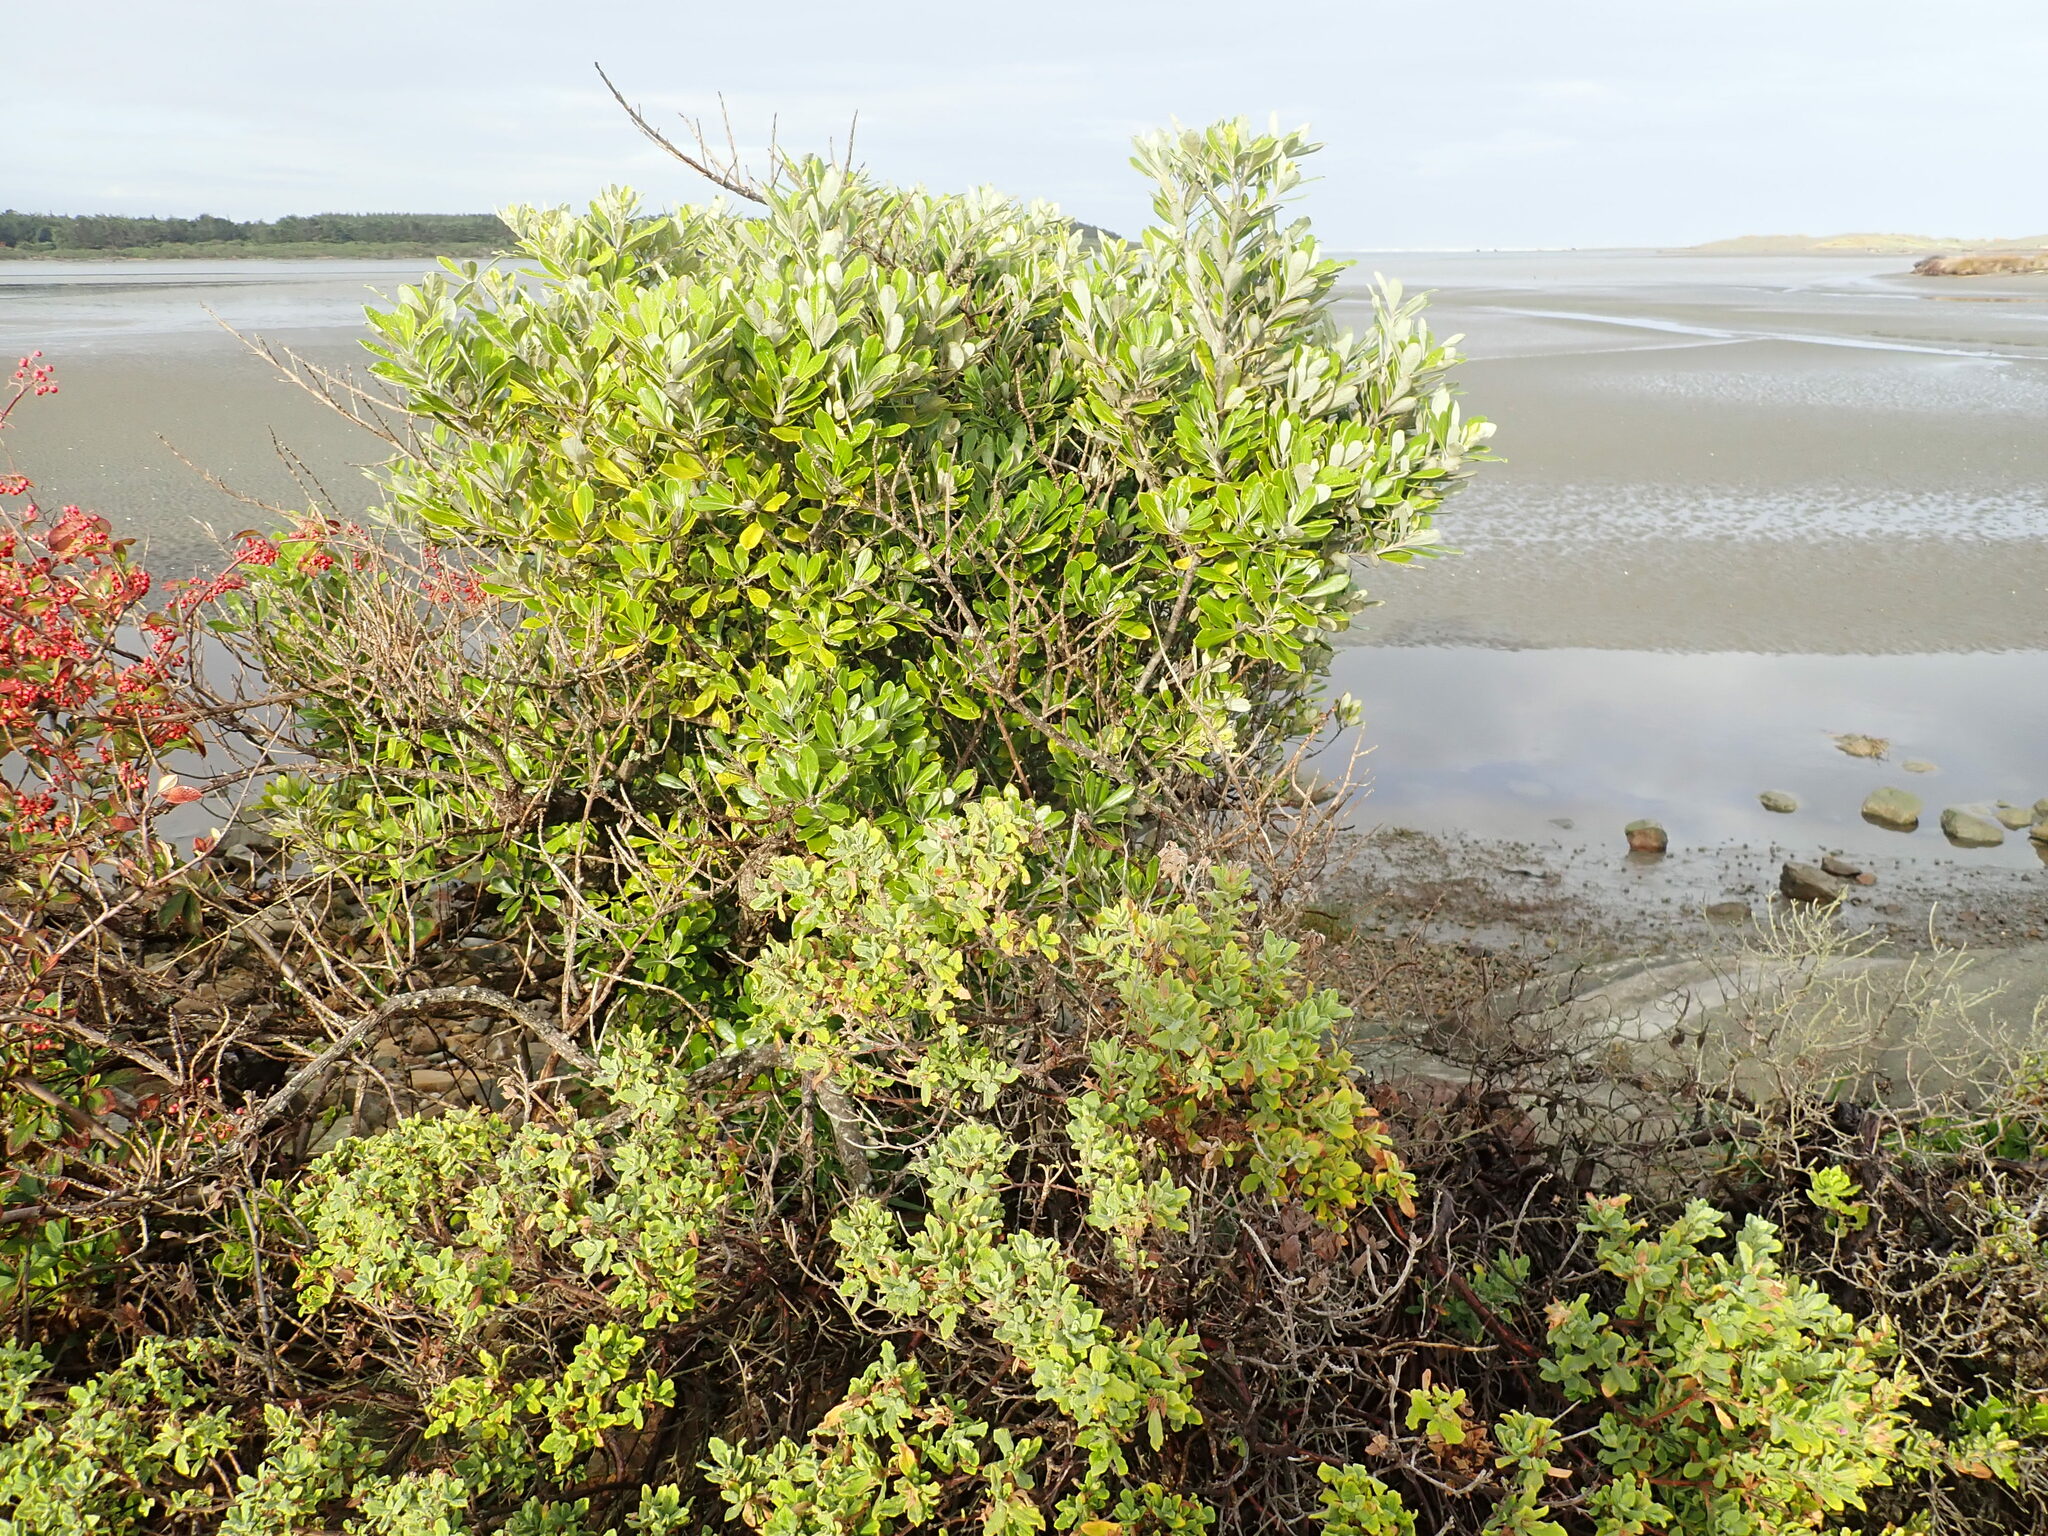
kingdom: Plantae
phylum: Tracheophyta
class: Magnoliopsida
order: Apiales
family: Pittosporaceae
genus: Pittosporum
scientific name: Pittosporum crassifolium
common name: Karo
